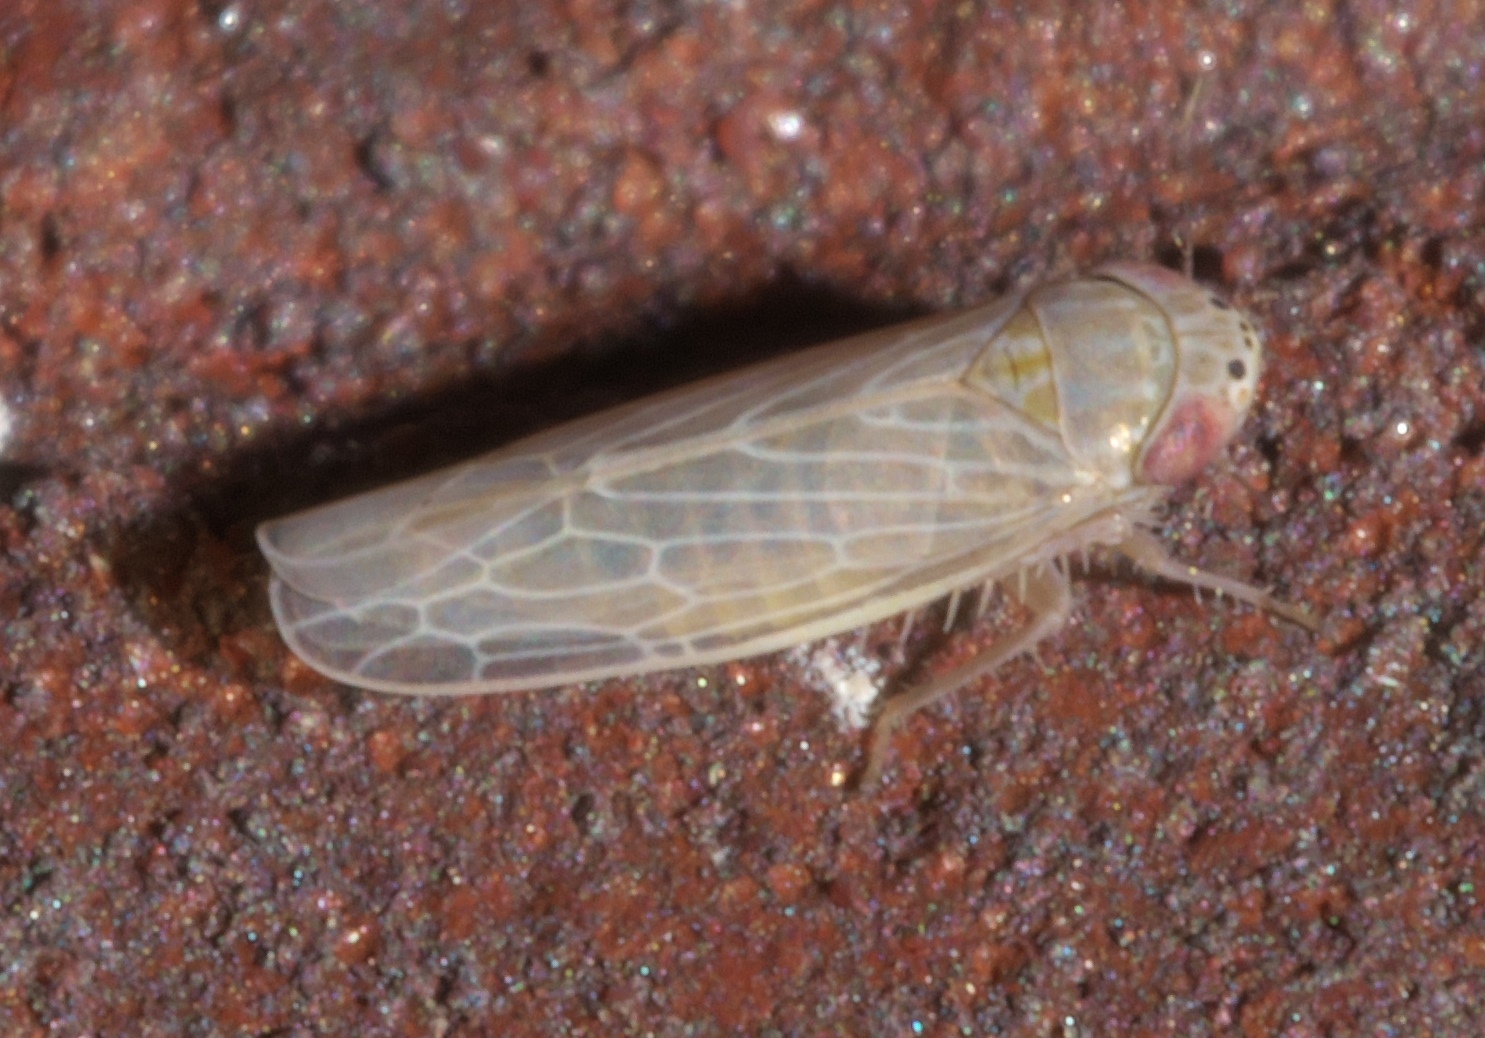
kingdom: Animalia
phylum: Arthropoda
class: Insecta
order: Hemiptera
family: Cicadellidae
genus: Graminella
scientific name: Graminella sonora
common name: Lesser lawn leafhopper
